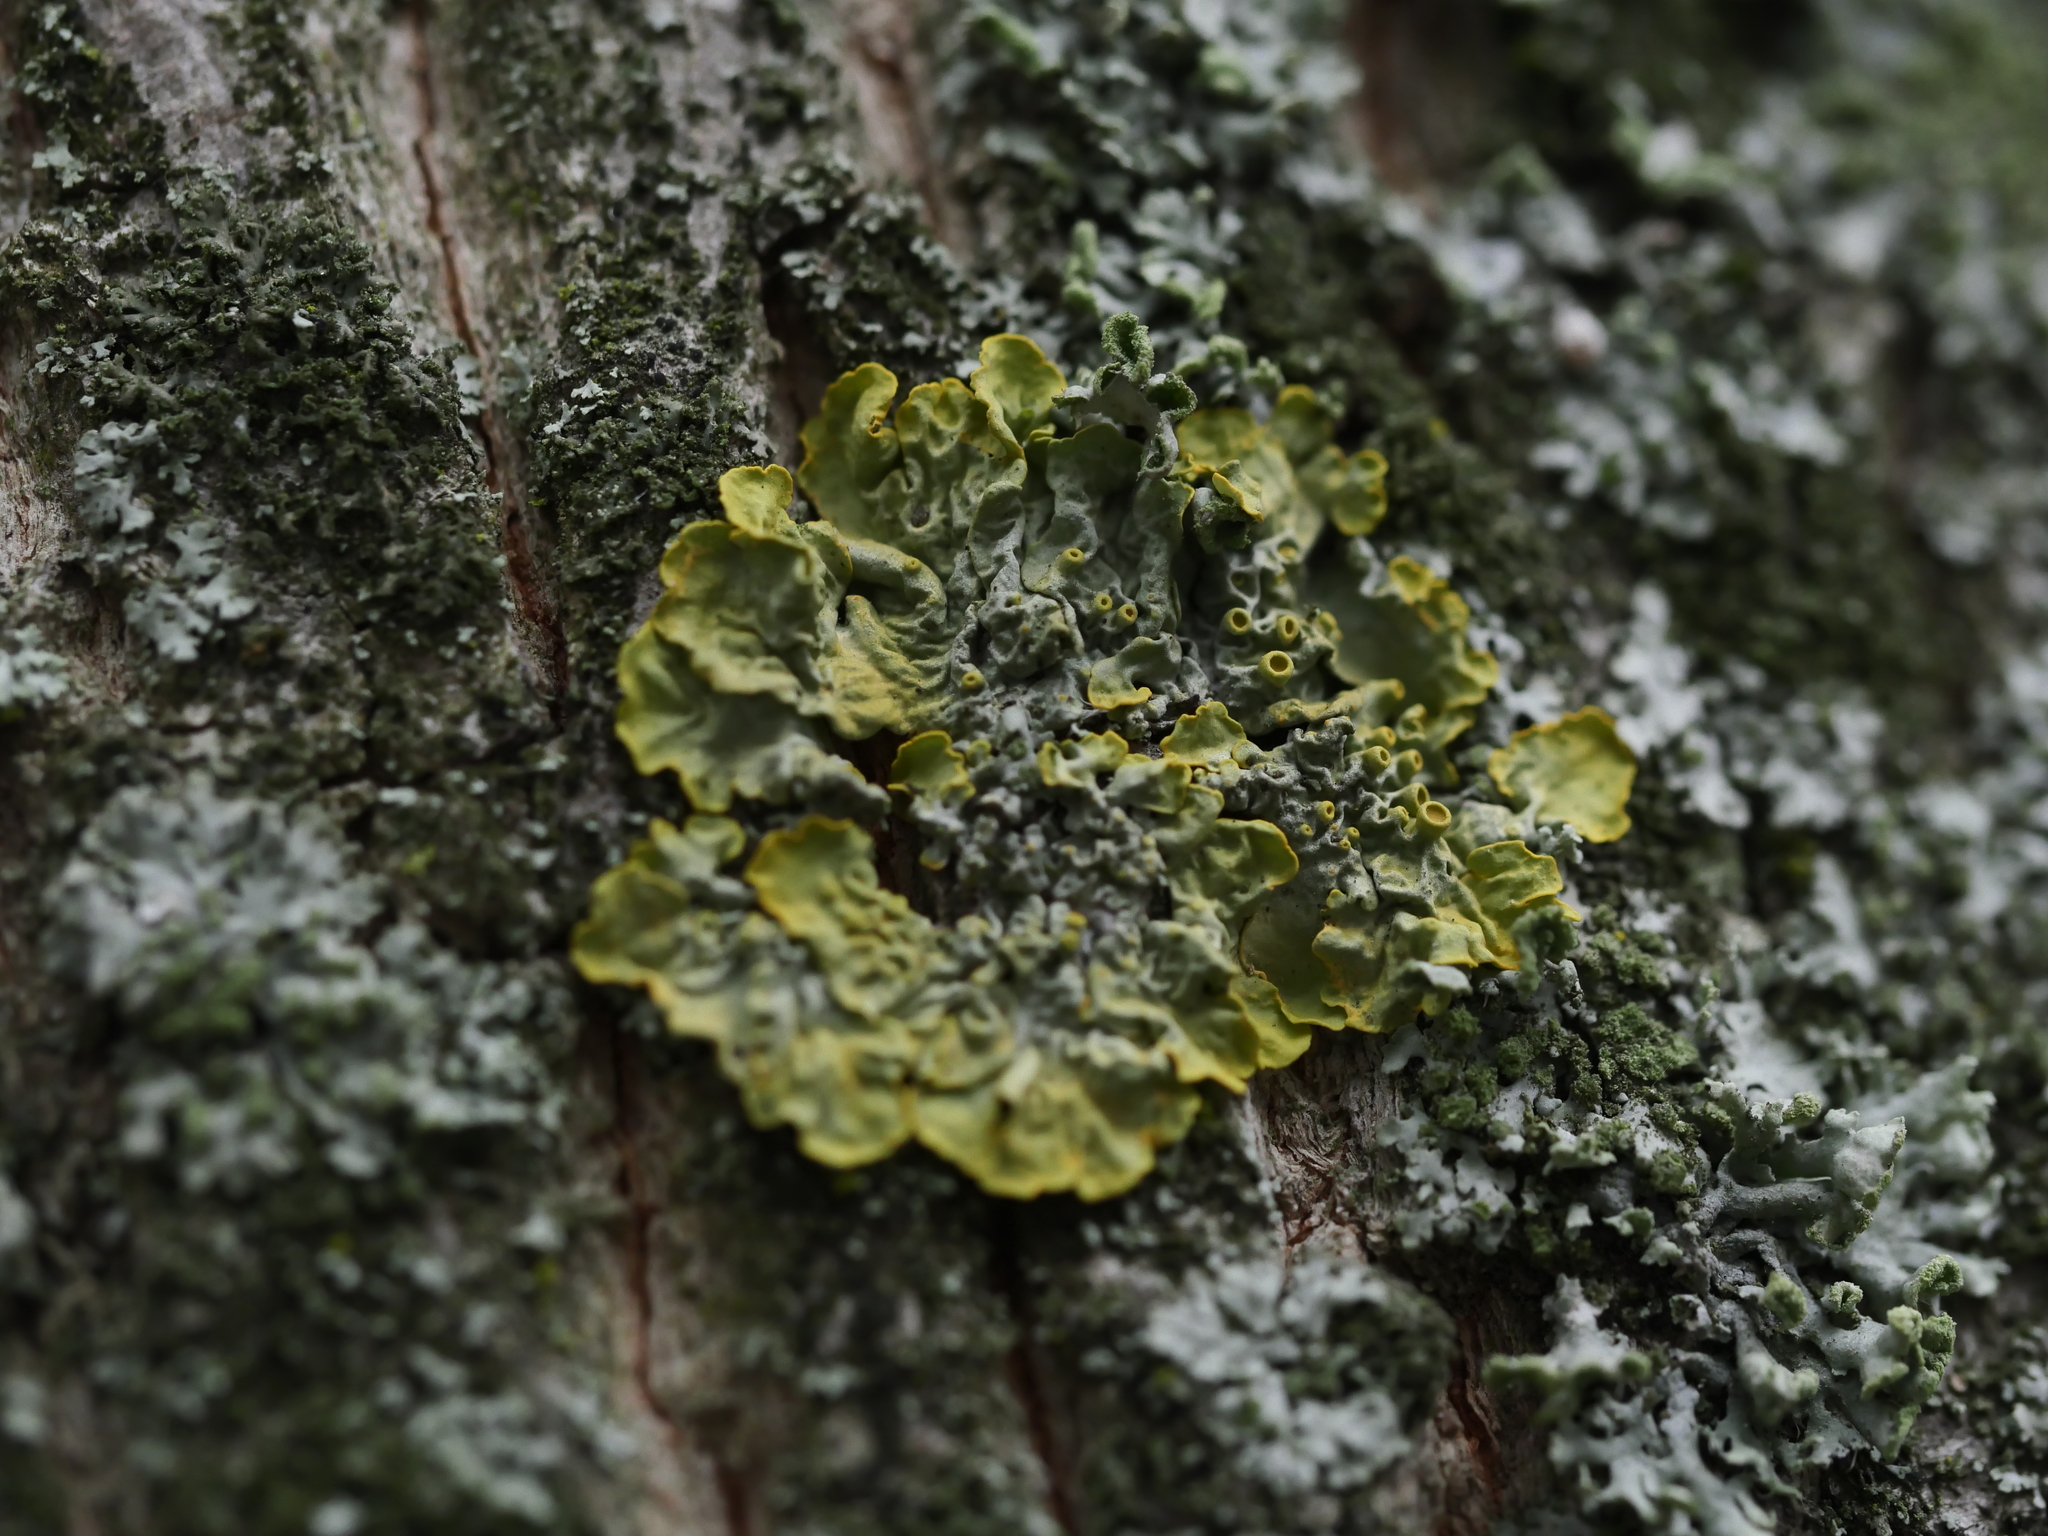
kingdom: Fungi
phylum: Ascomycota
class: Lecanoromycetes
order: Teloschistales
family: Teloschistaceae
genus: Xanthoria
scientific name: Xanthoria parietina
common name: Common orange lichen
